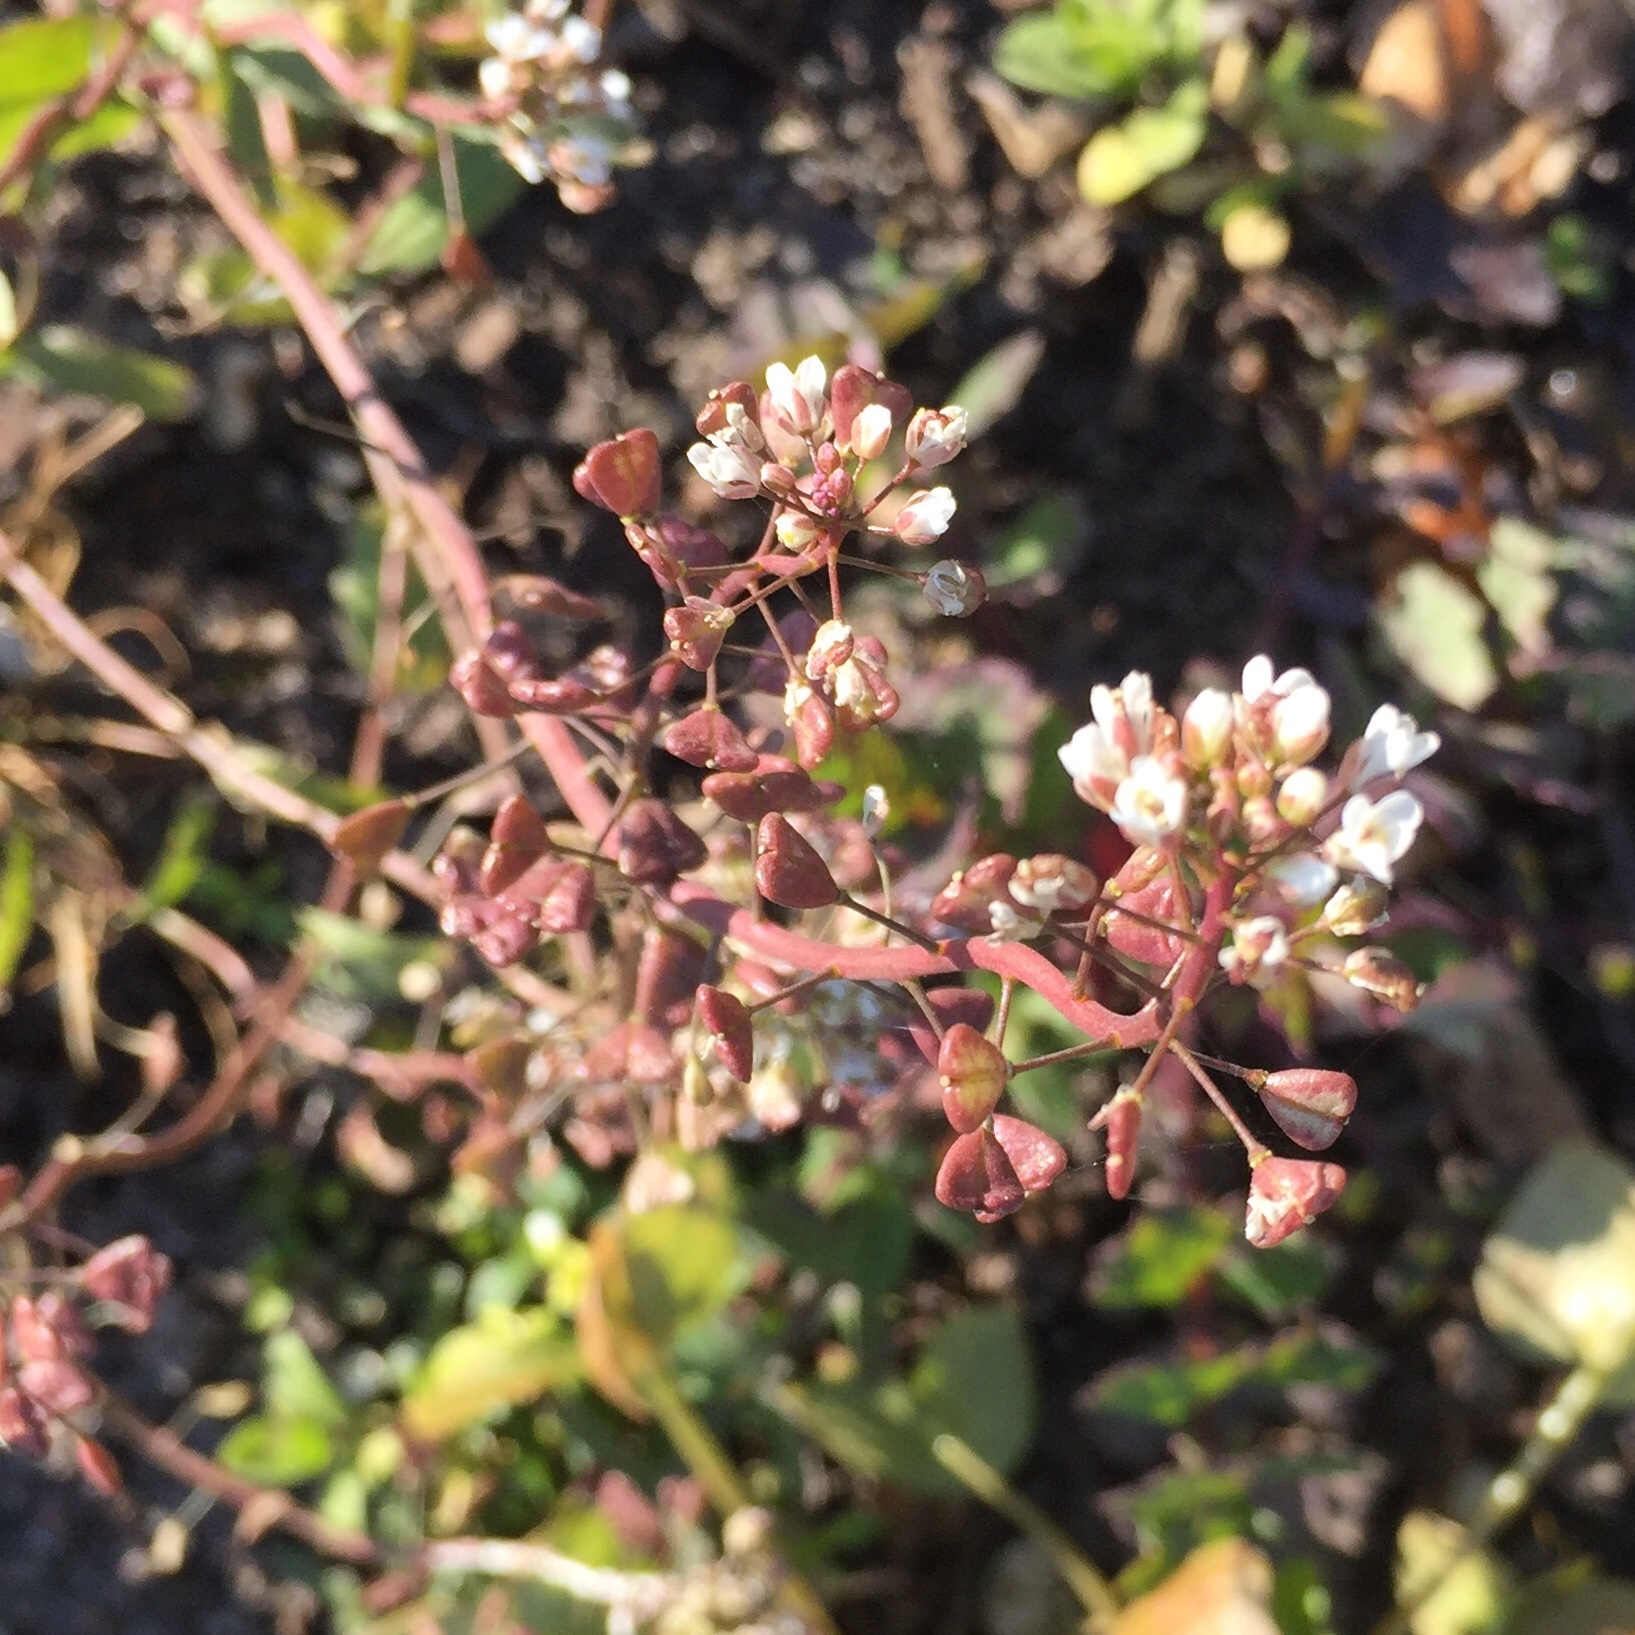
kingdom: Plantae
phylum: Tracheophyta
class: Magnoliopsida
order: Brassicales
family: Brassicaceae
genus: Capsella
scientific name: Capsella bursa-pastoris
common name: Shepherd's purse
